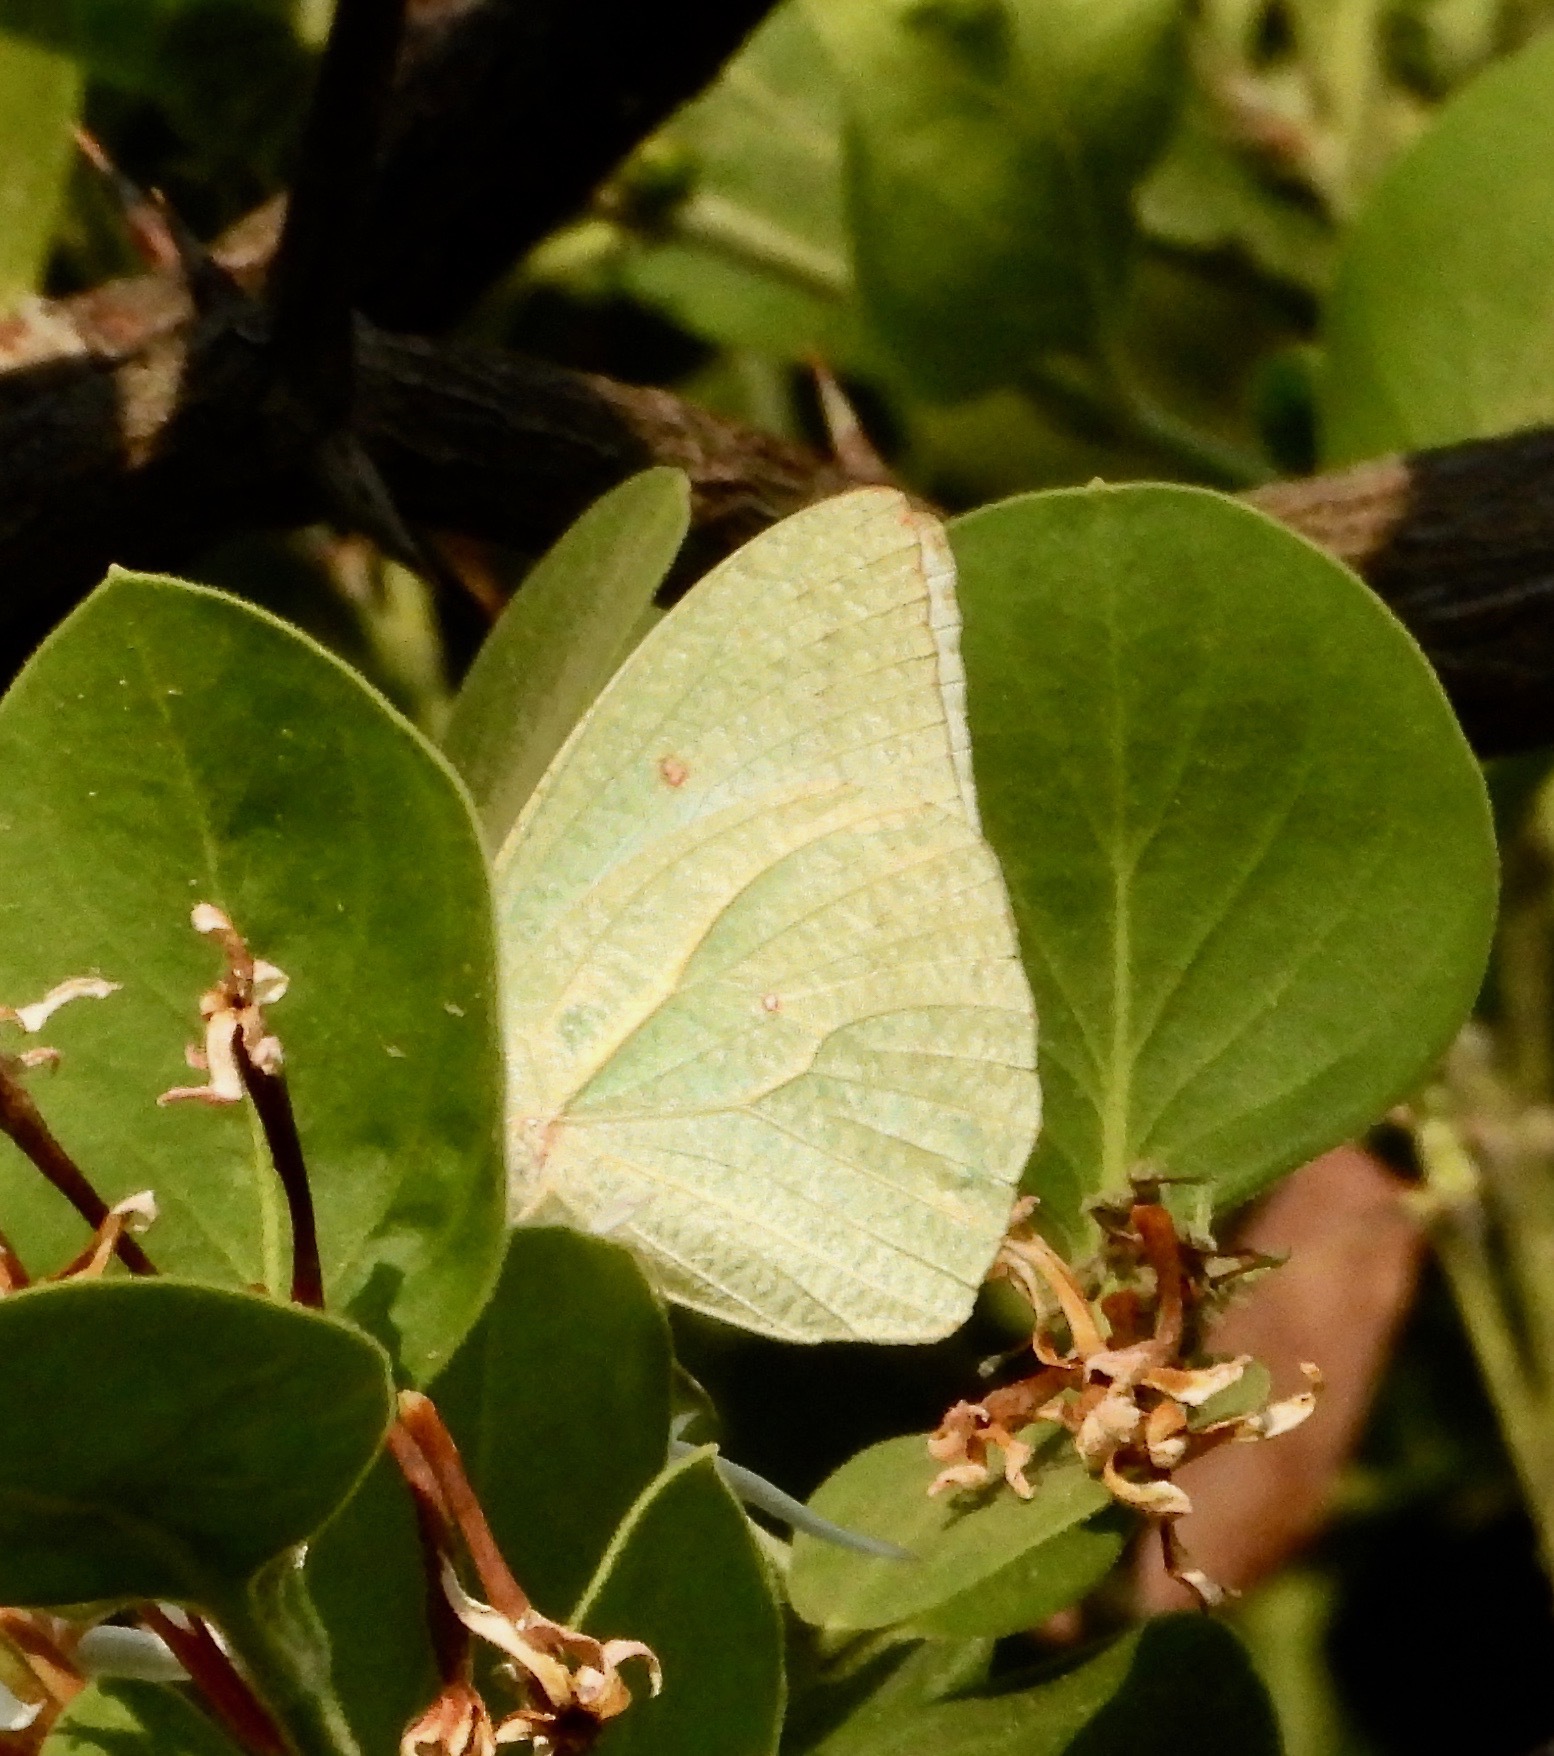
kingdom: Animalia
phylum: Arthropoda
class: Insecta
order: Lepidoptera
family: Pieridae
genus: Catopsilia
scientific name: Catopsilia florella
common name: African migrant
